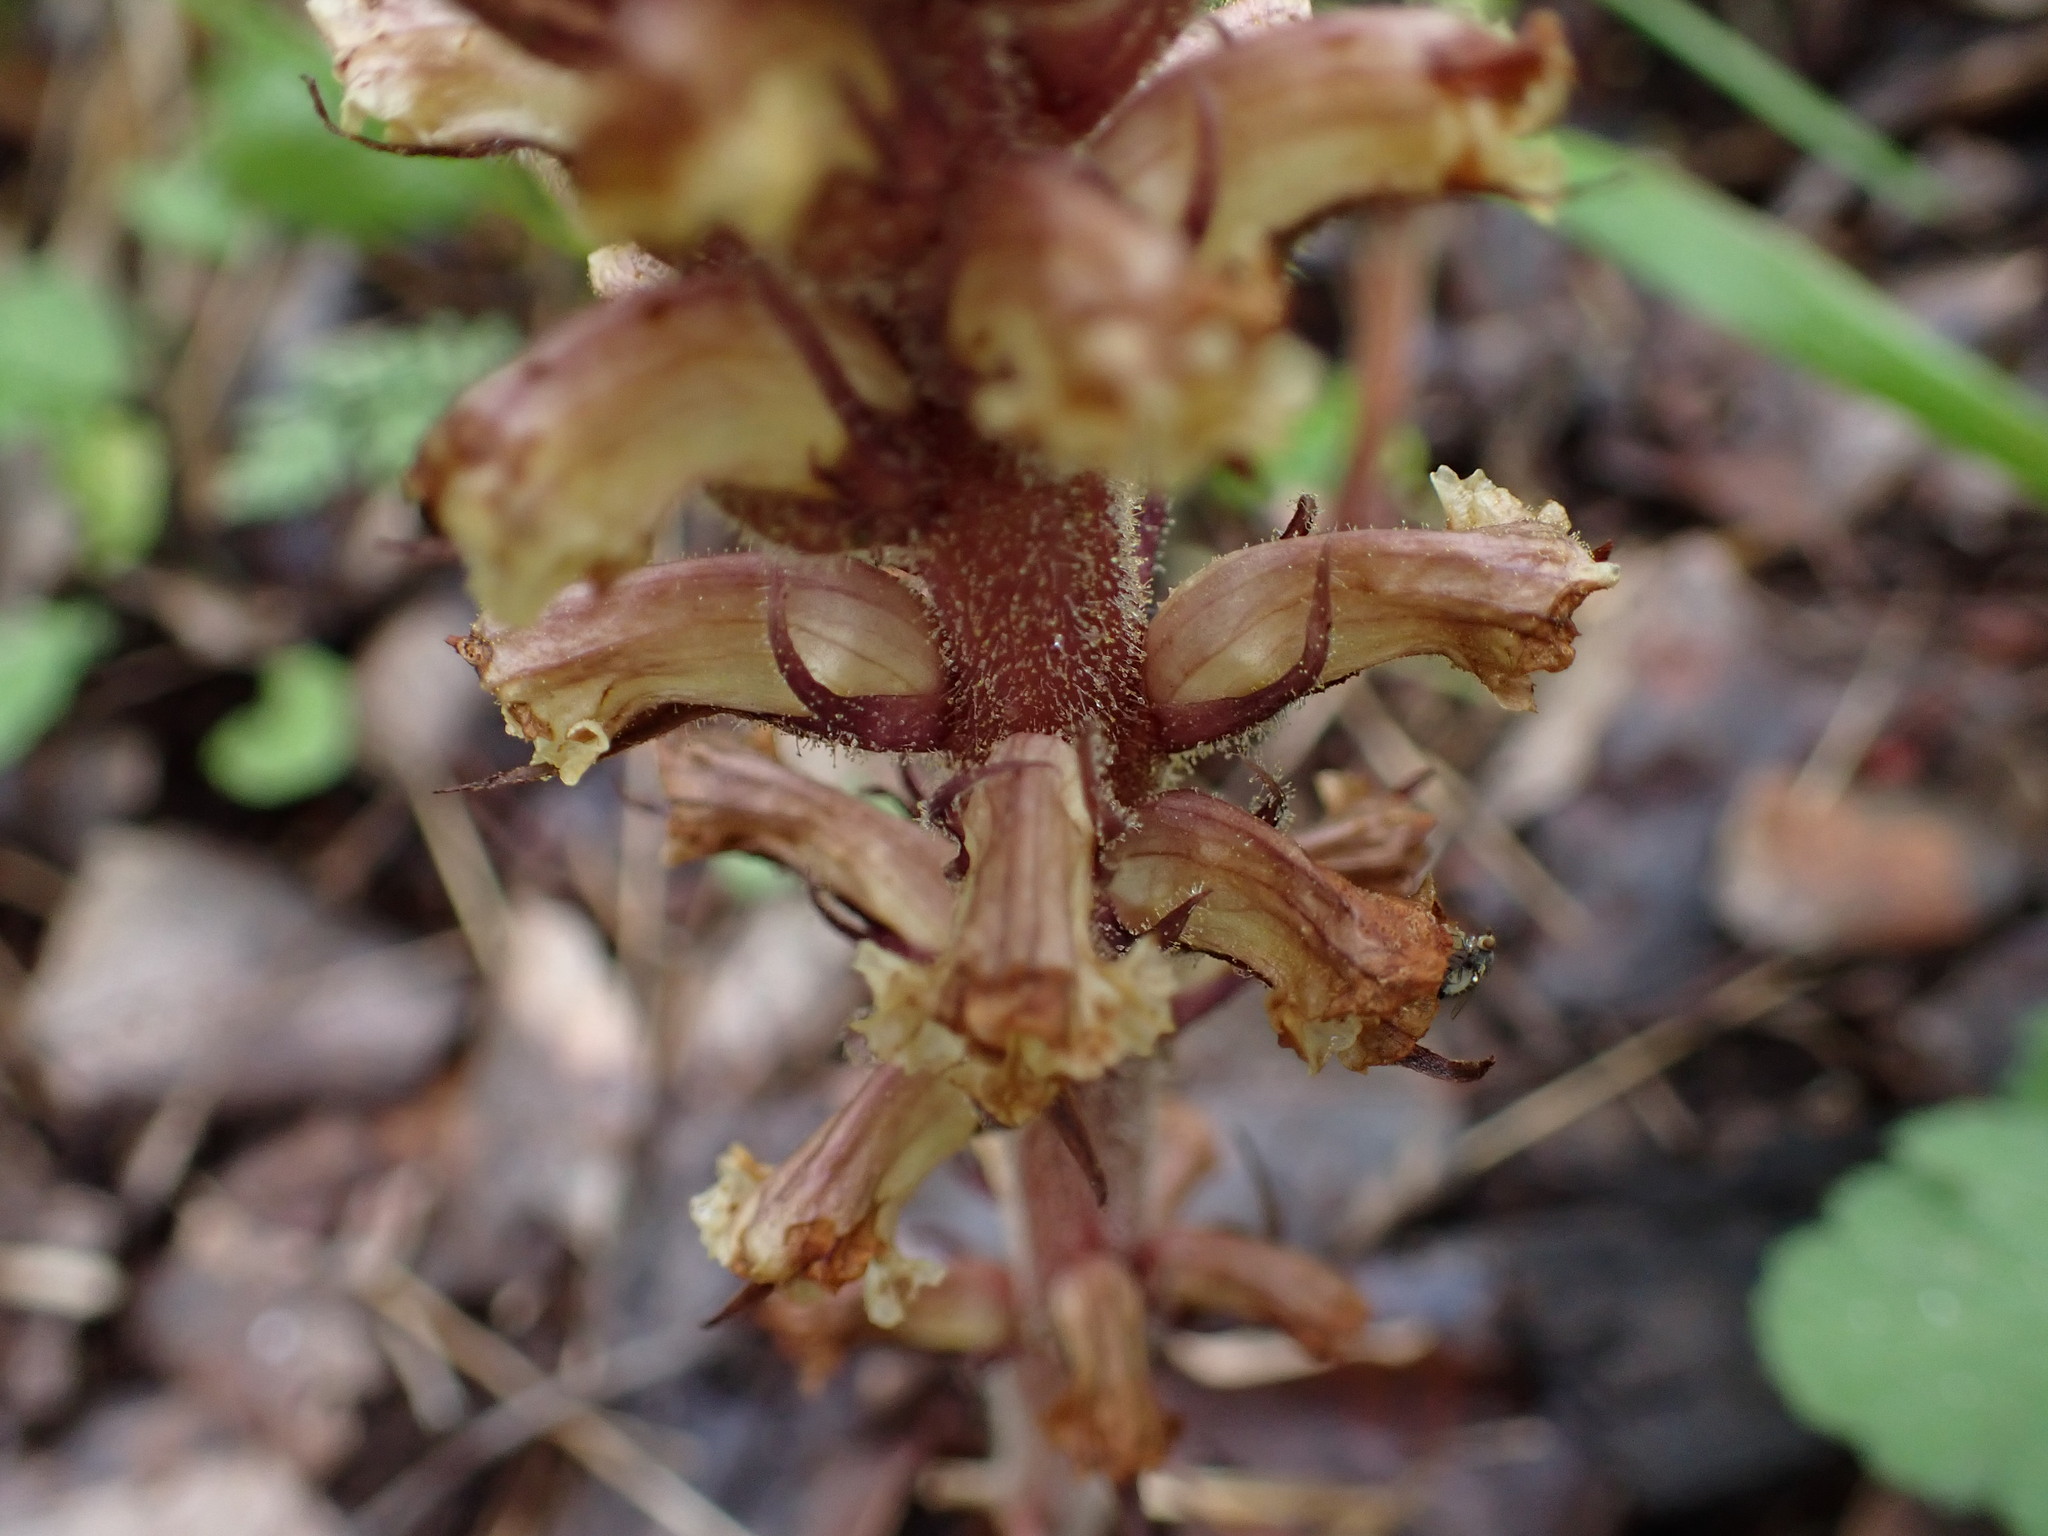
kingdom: Plantae
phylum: Tracheophyta
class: Magnoliopsida
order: Lamiales
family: Orobanchaceae
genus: Orobanche
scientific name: Orobanche hederae
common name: Ivy broomrape
